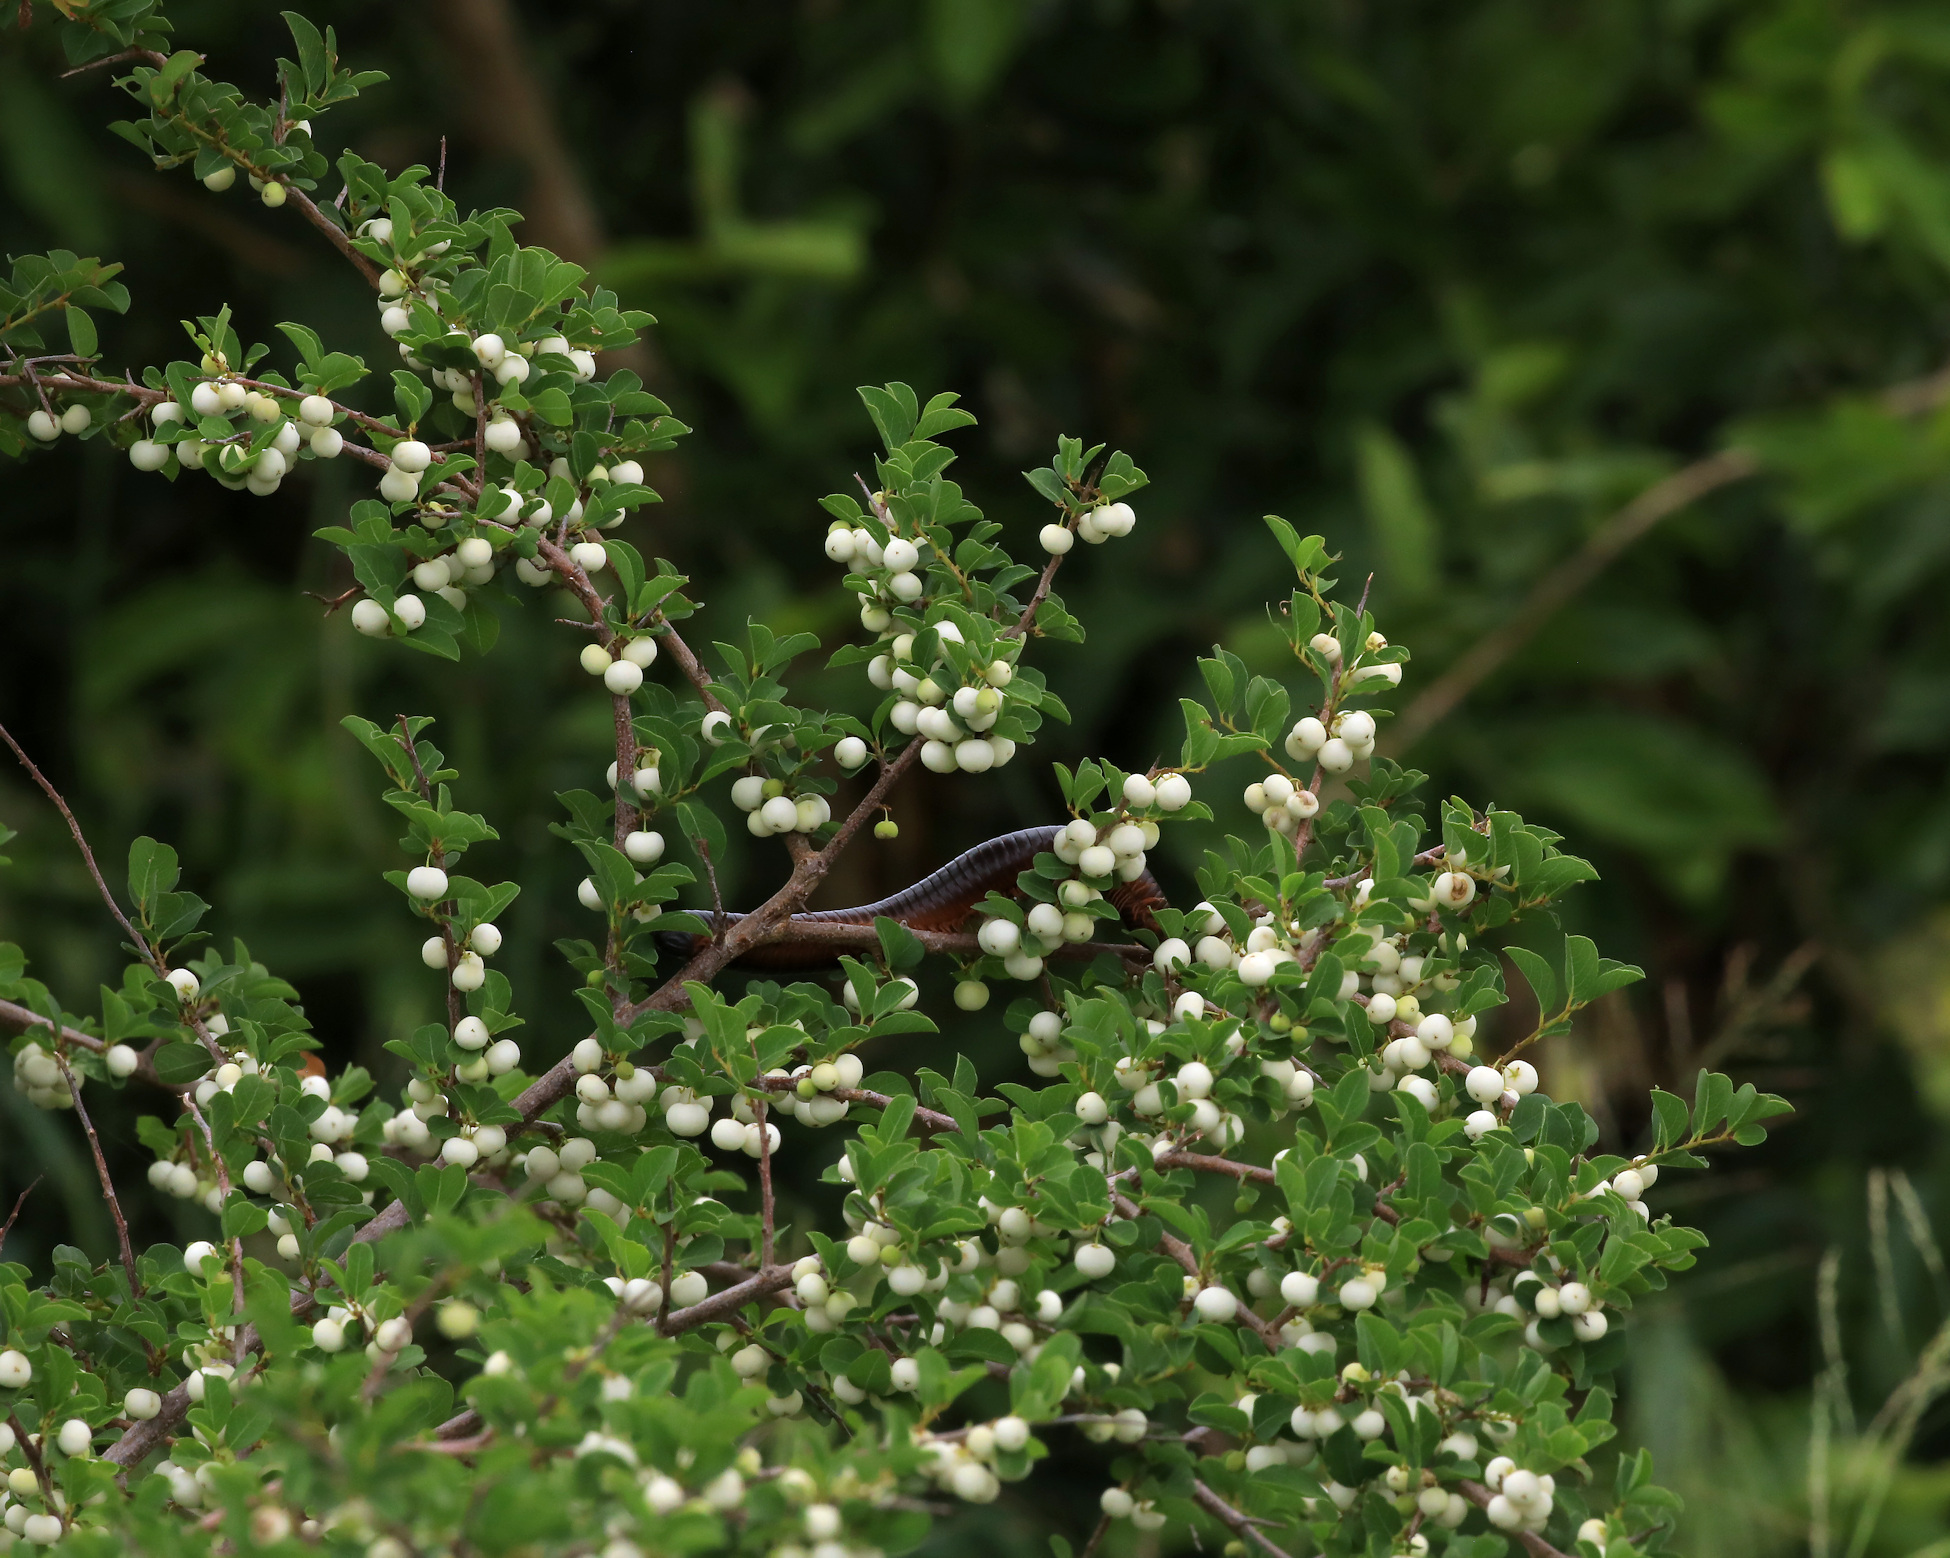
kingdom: Plantae
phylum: Tracheophyta
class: Magnoliopsida
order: Malpighiales
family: Phyllanthaceae
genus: Flueggea
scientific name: Flueggea virosa
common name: Common bushweed
